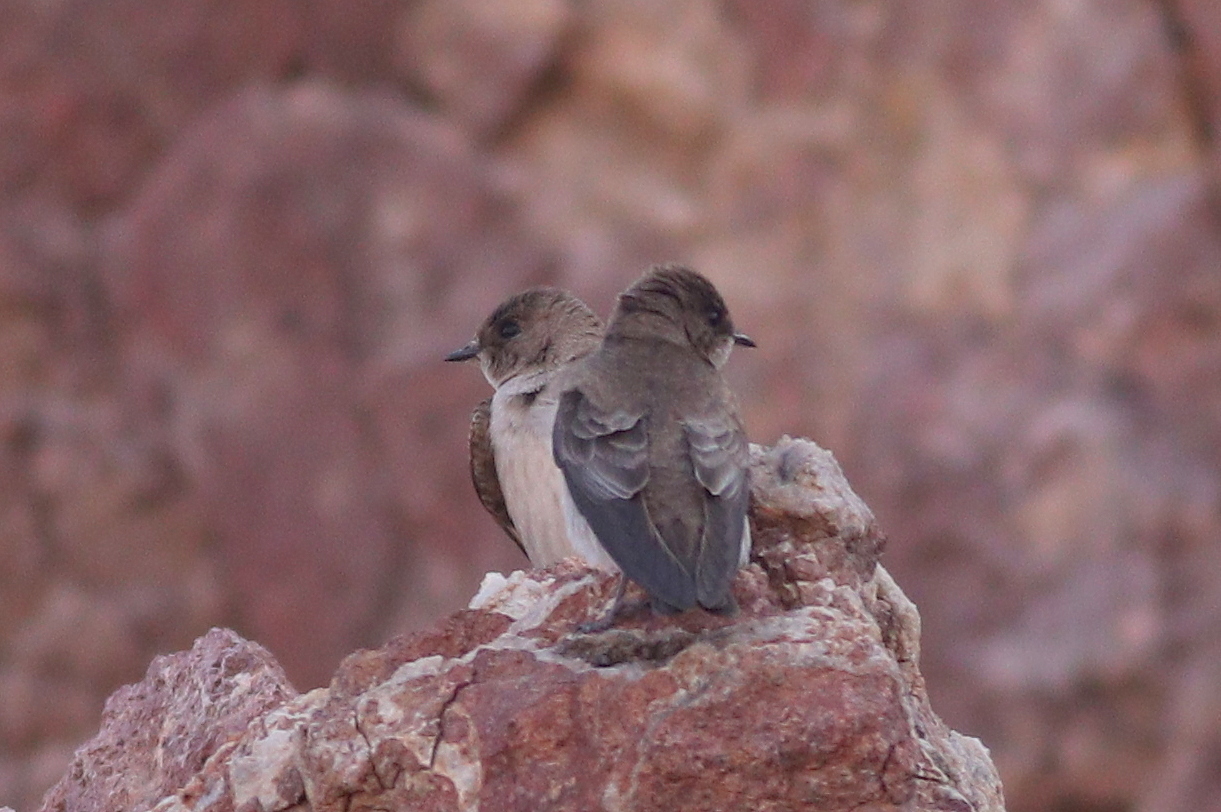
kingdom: Animalia
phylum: Chordata
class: Aves
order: Passeriformes
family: Hirundinidae
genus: Stelgidopteryx
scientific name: Stelgidopteryx serripennis
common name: Northern rough-winged swallow
